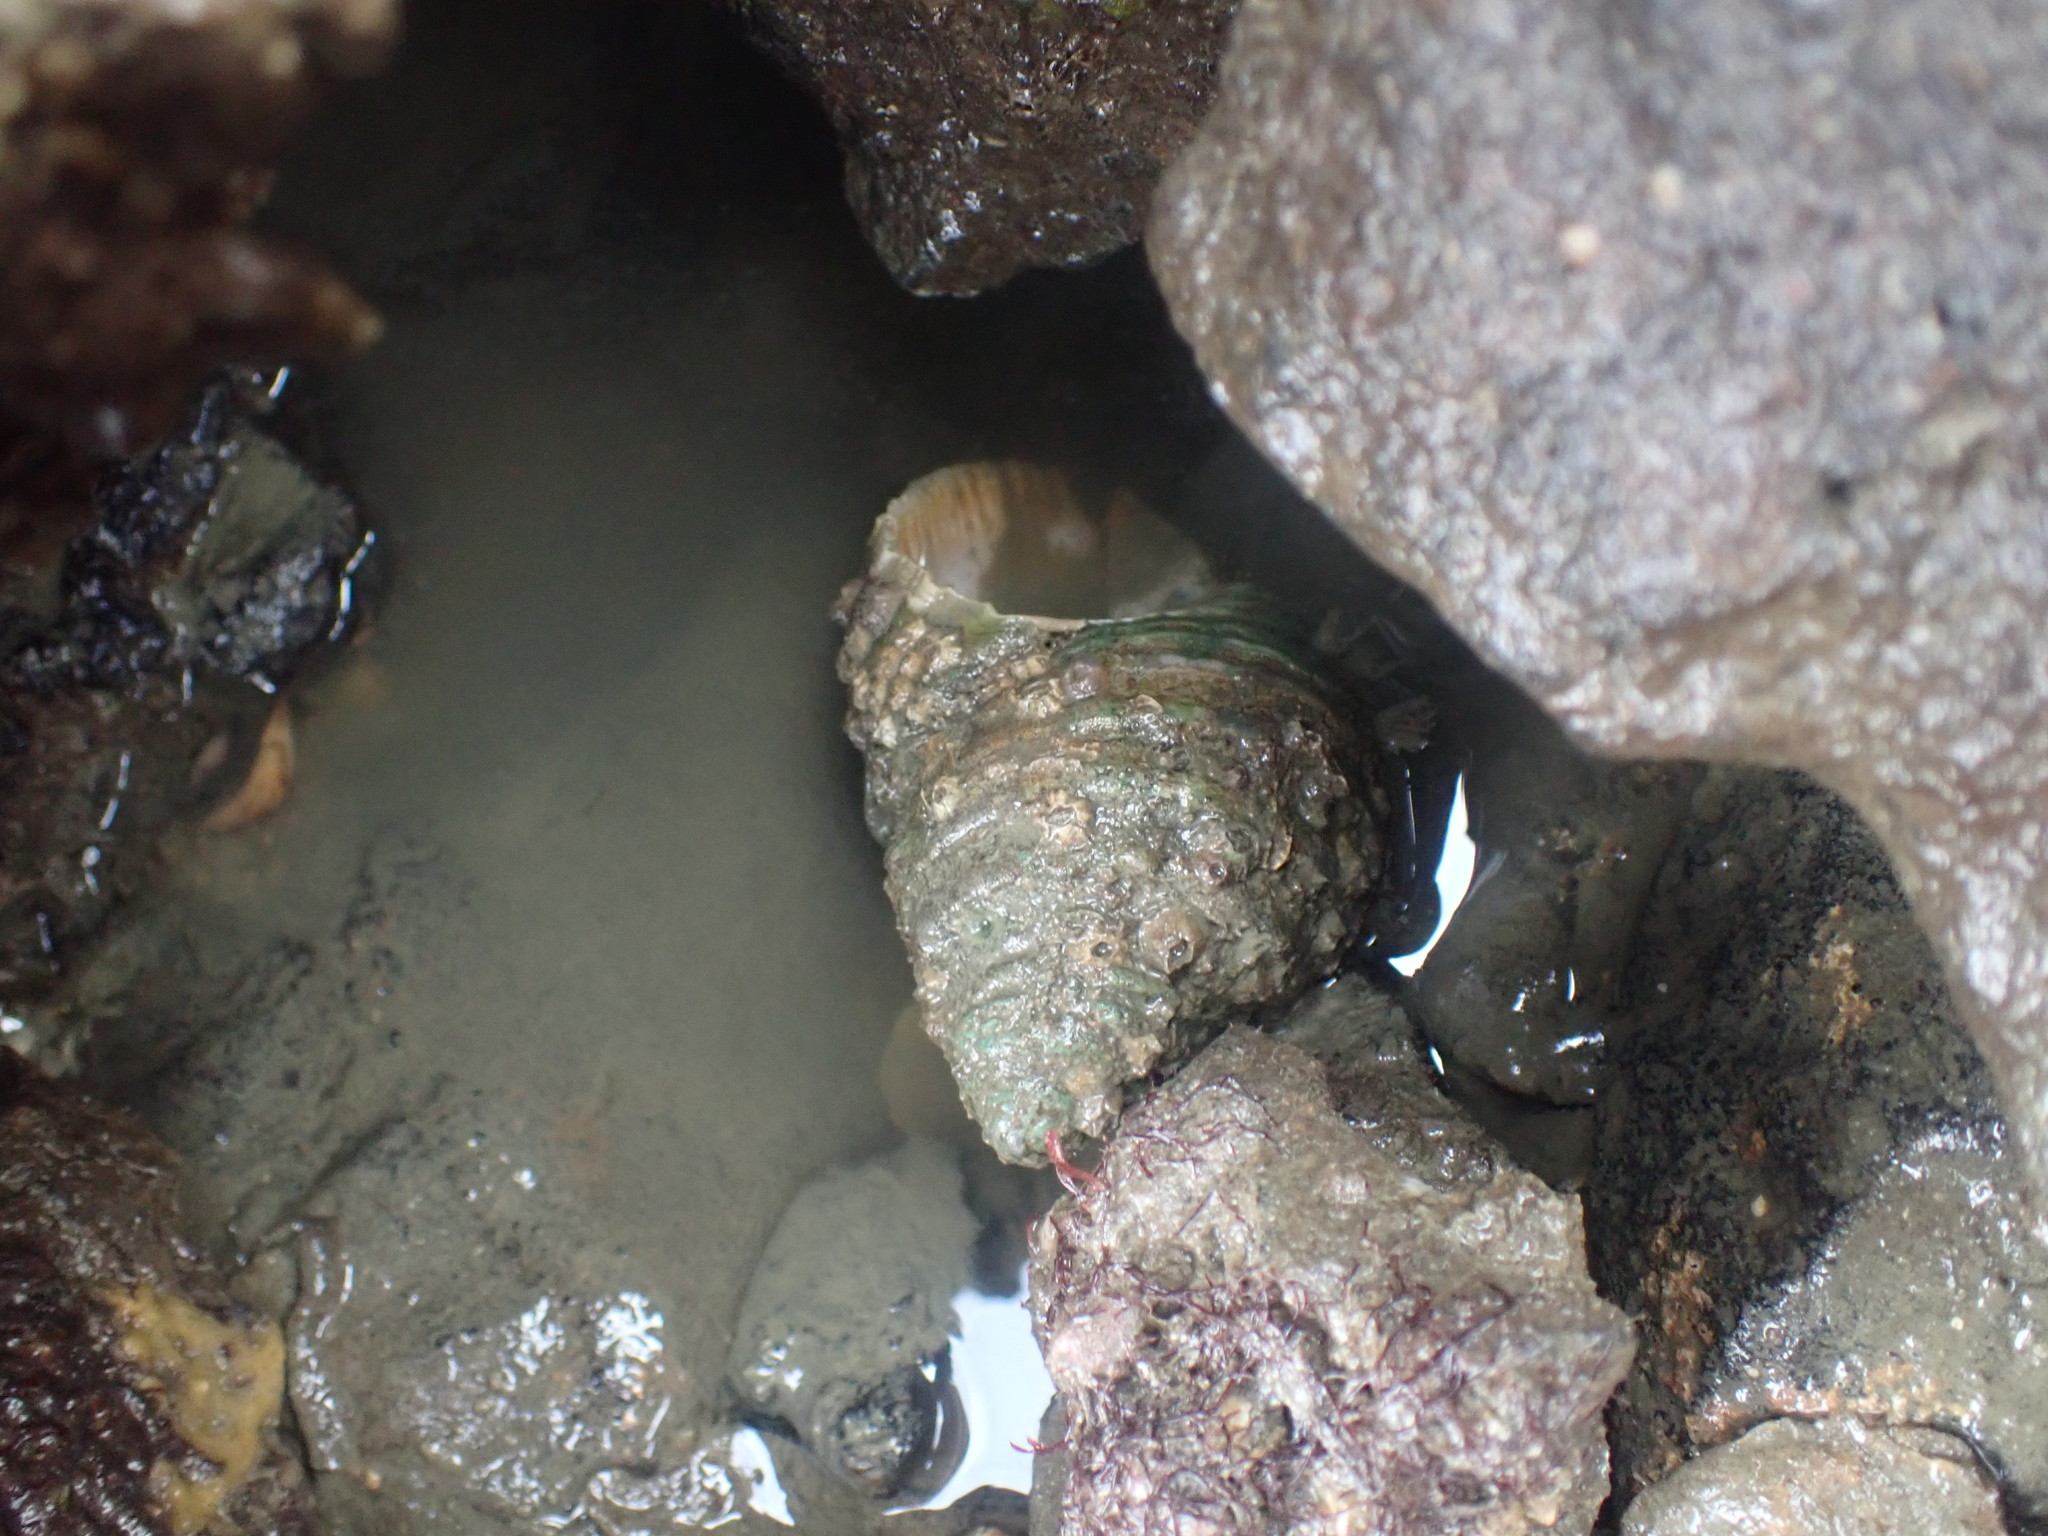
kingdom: Animalia
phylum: Mollusca
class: Gastropoda
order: Neogastropoda
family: Muricidae
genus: Dicathais
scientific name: Dicathais orbita
